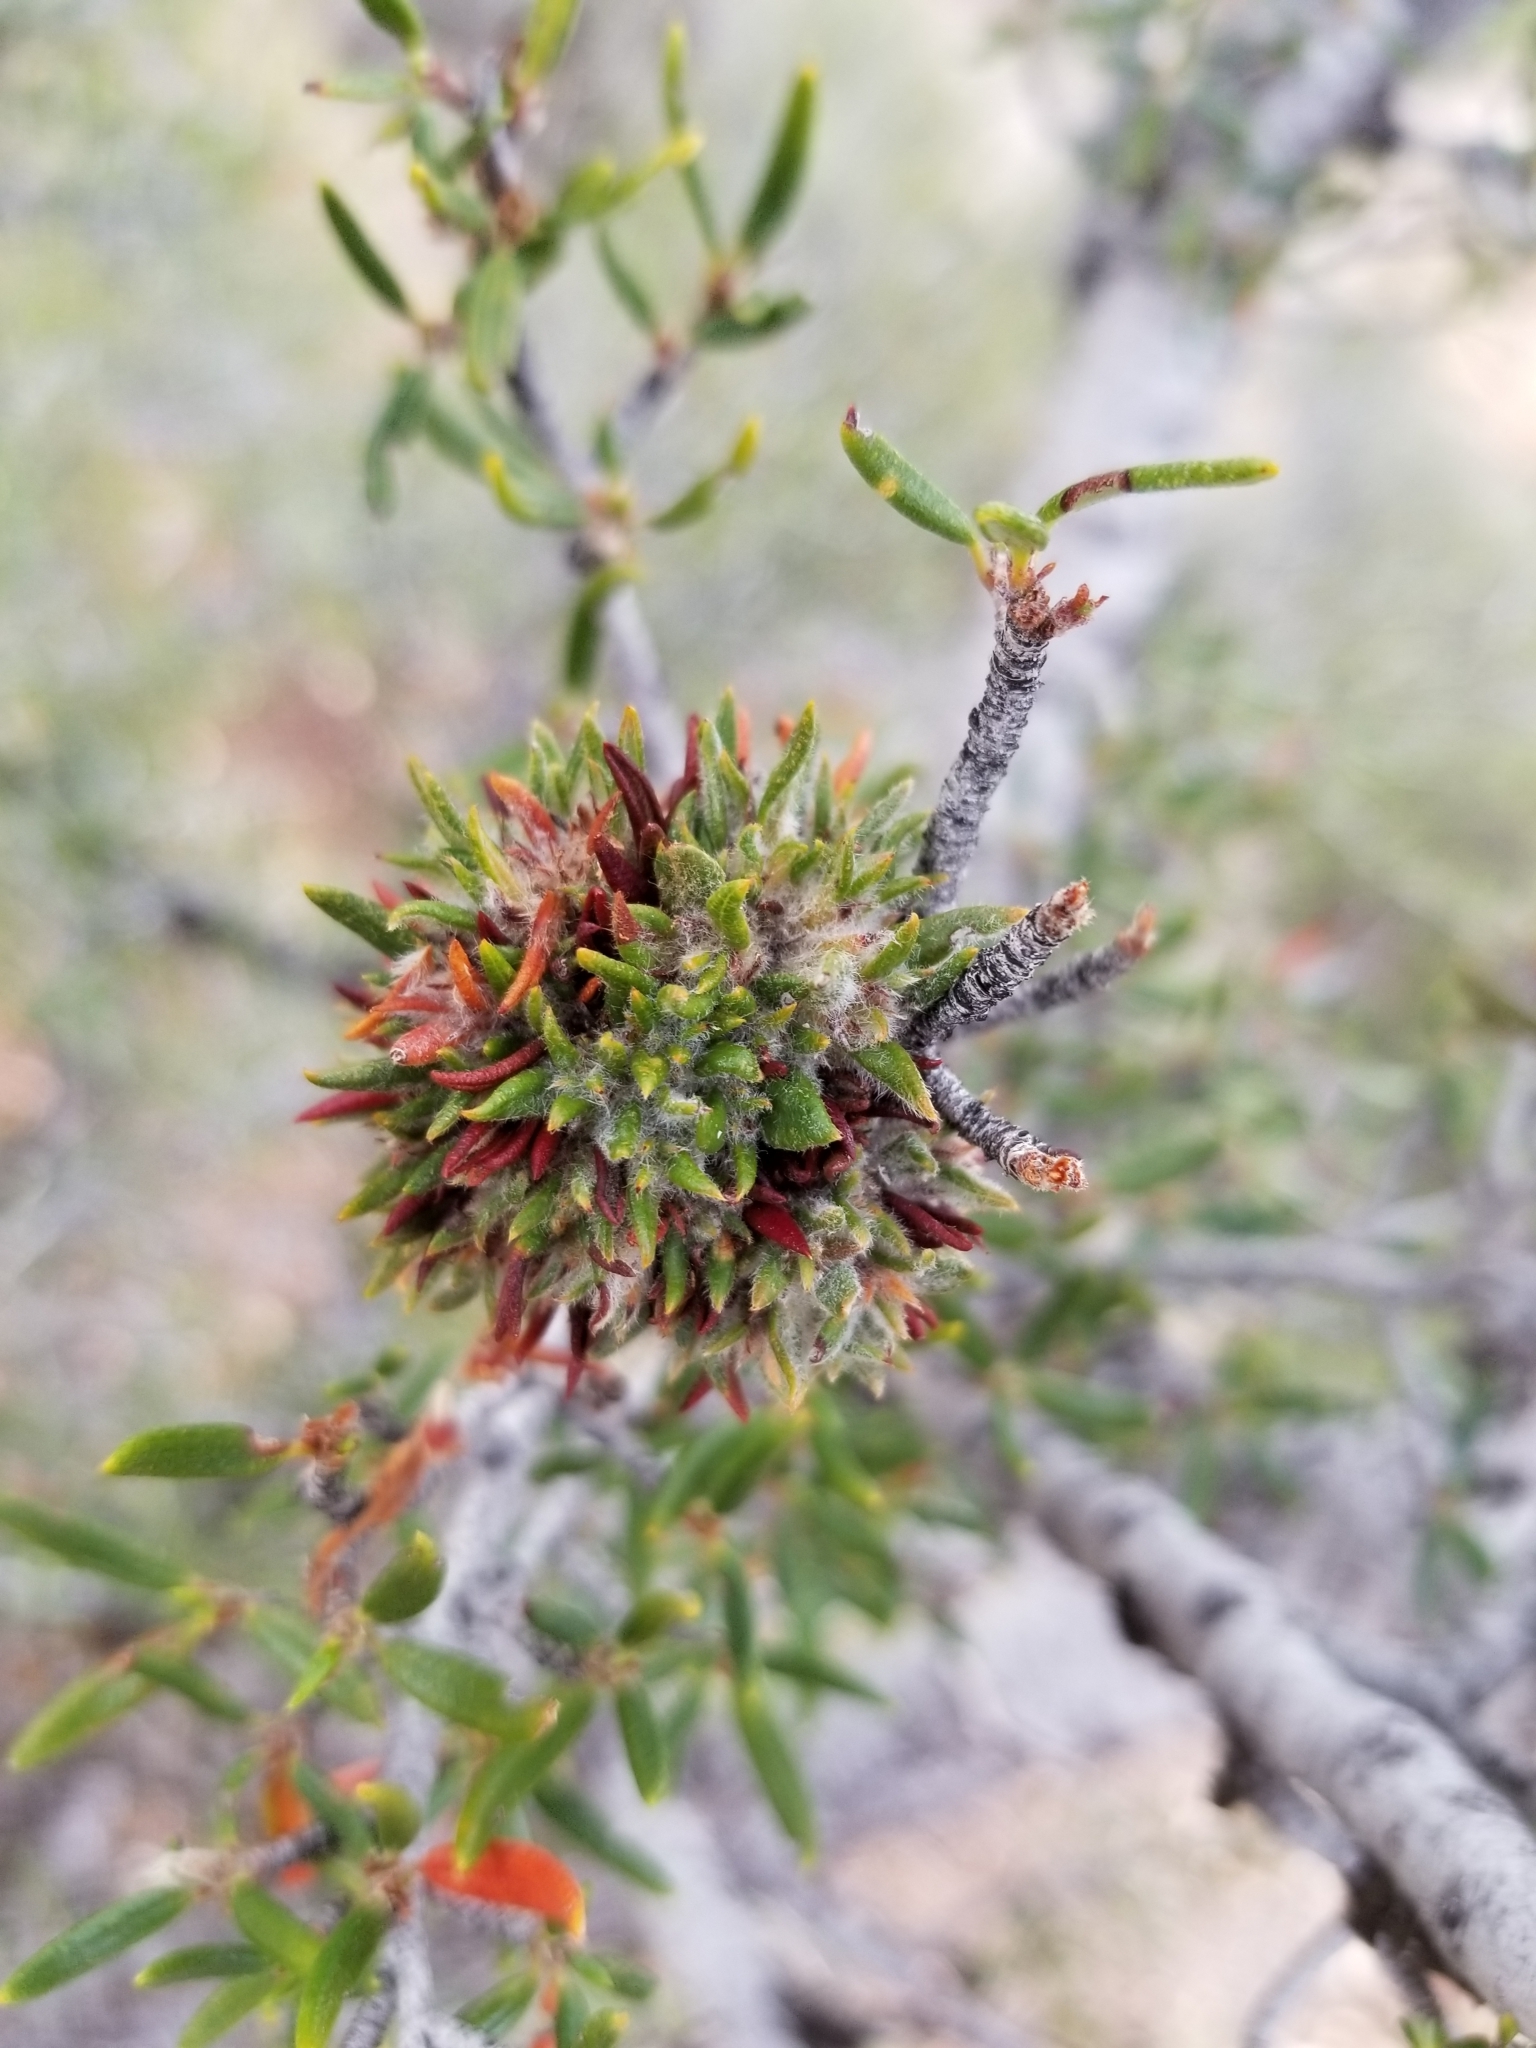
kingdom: Plantae
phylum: Tracheophyta
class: Magnoliopsida
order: Rosales
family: Rosaceae
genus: Cercocarpus
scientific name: Cercocarpus ledifolius
